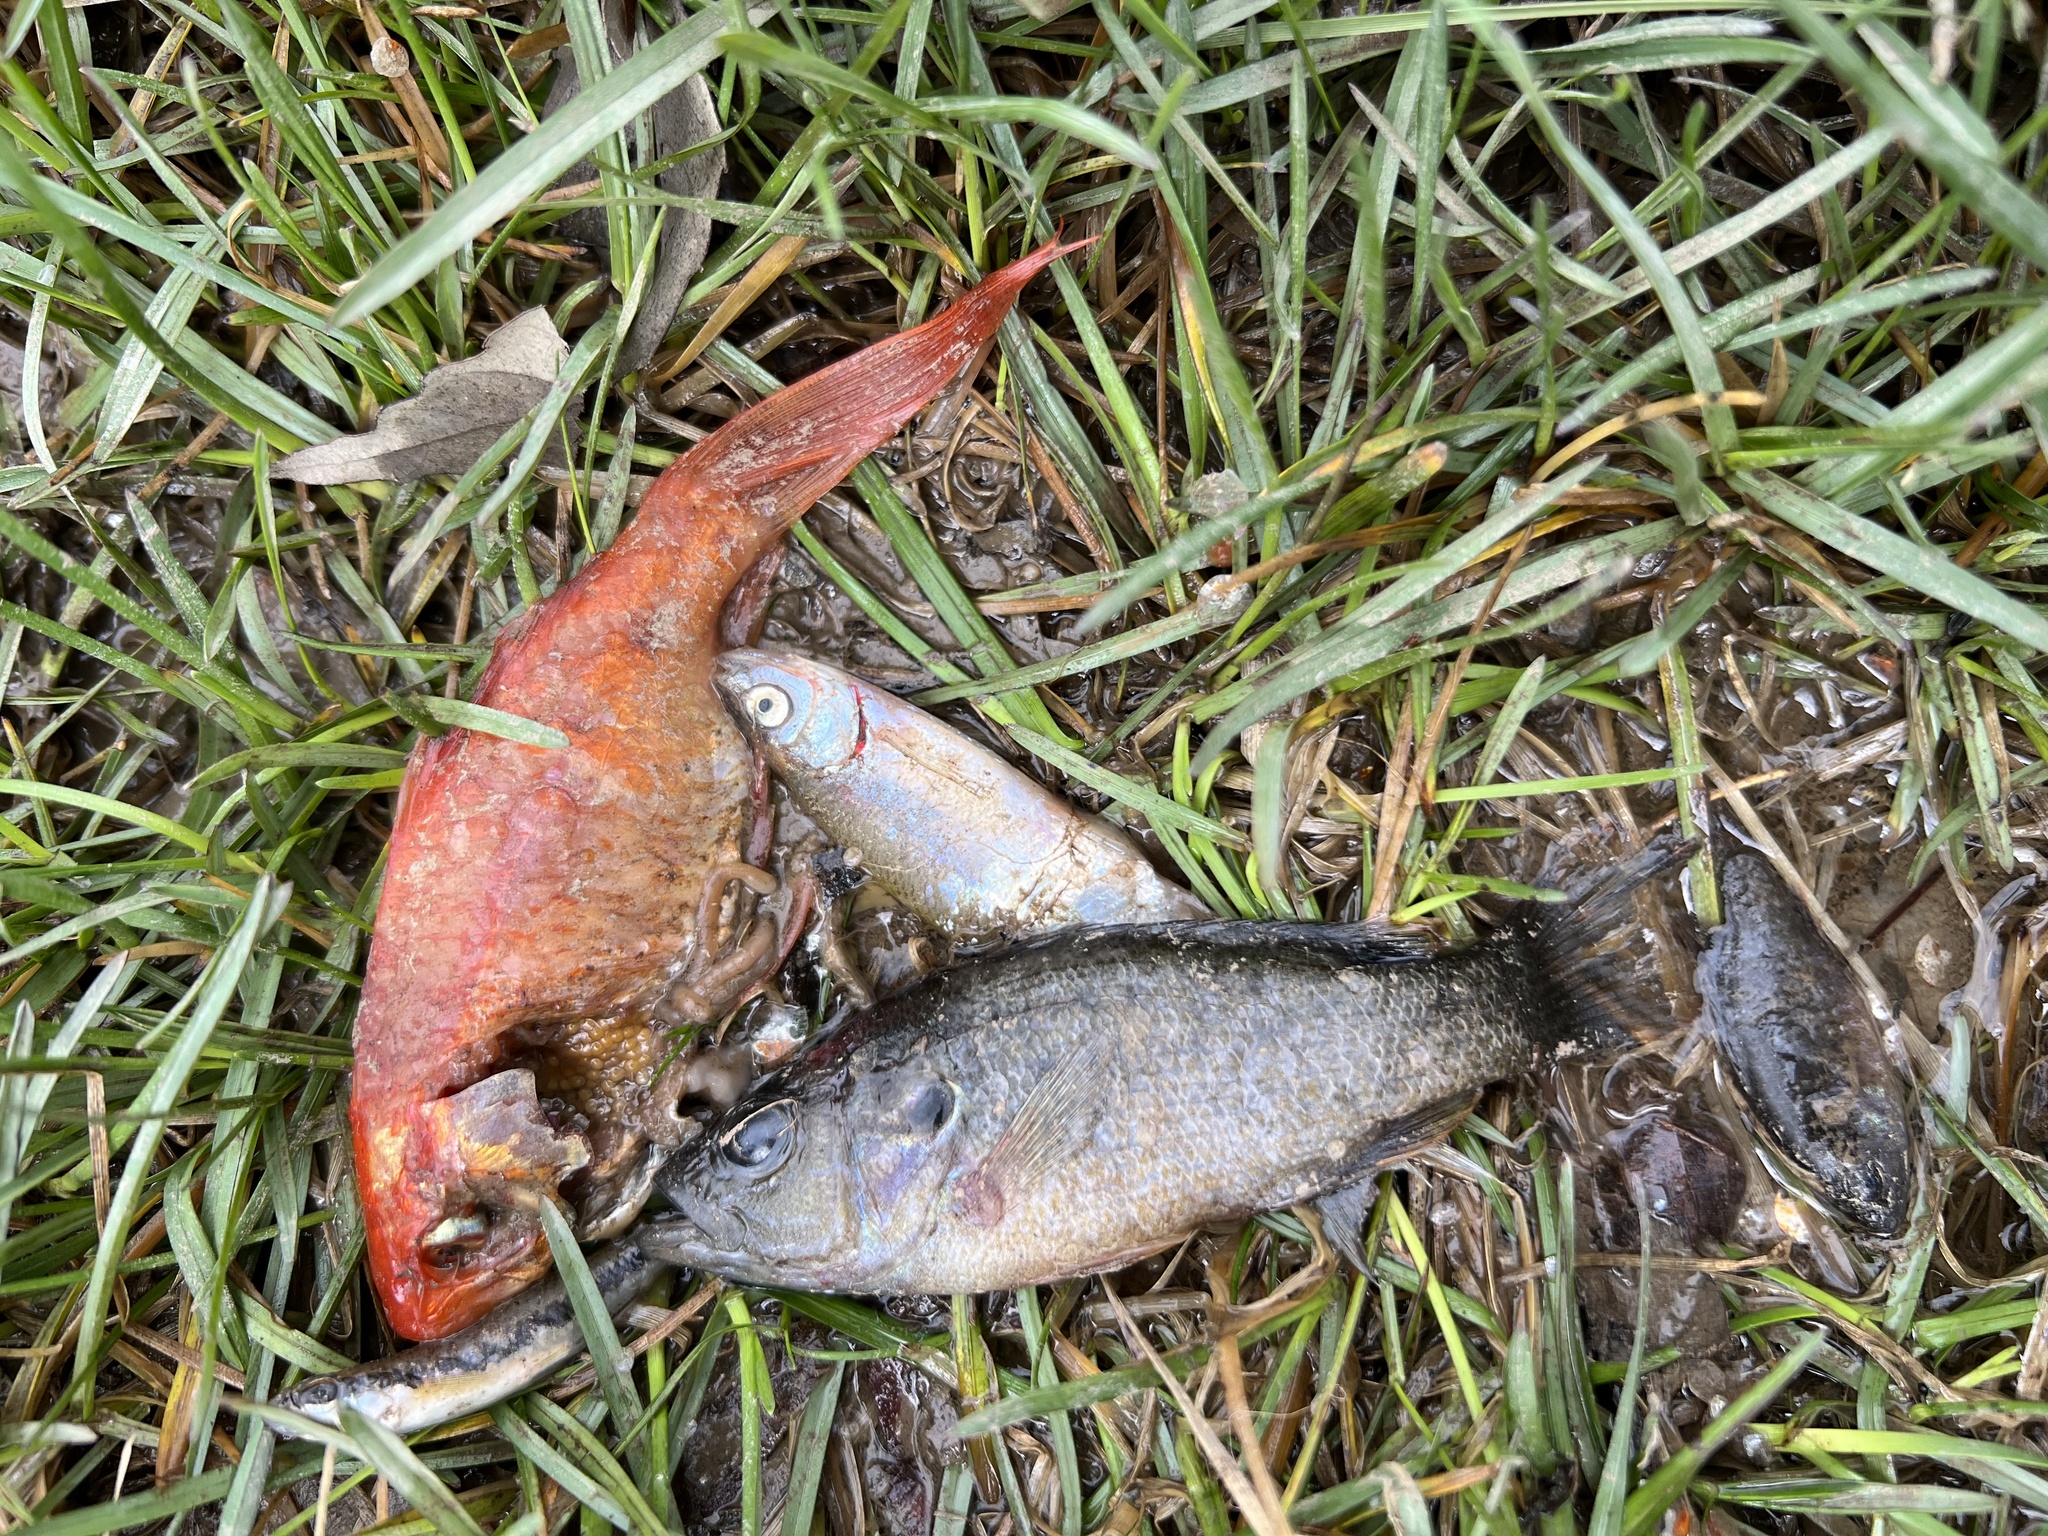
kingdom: Animalia
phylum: Chordata
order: Cypriniformes
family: Cyprinidae
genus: Carassius
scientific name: Carassius auratus
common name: Goldfish
